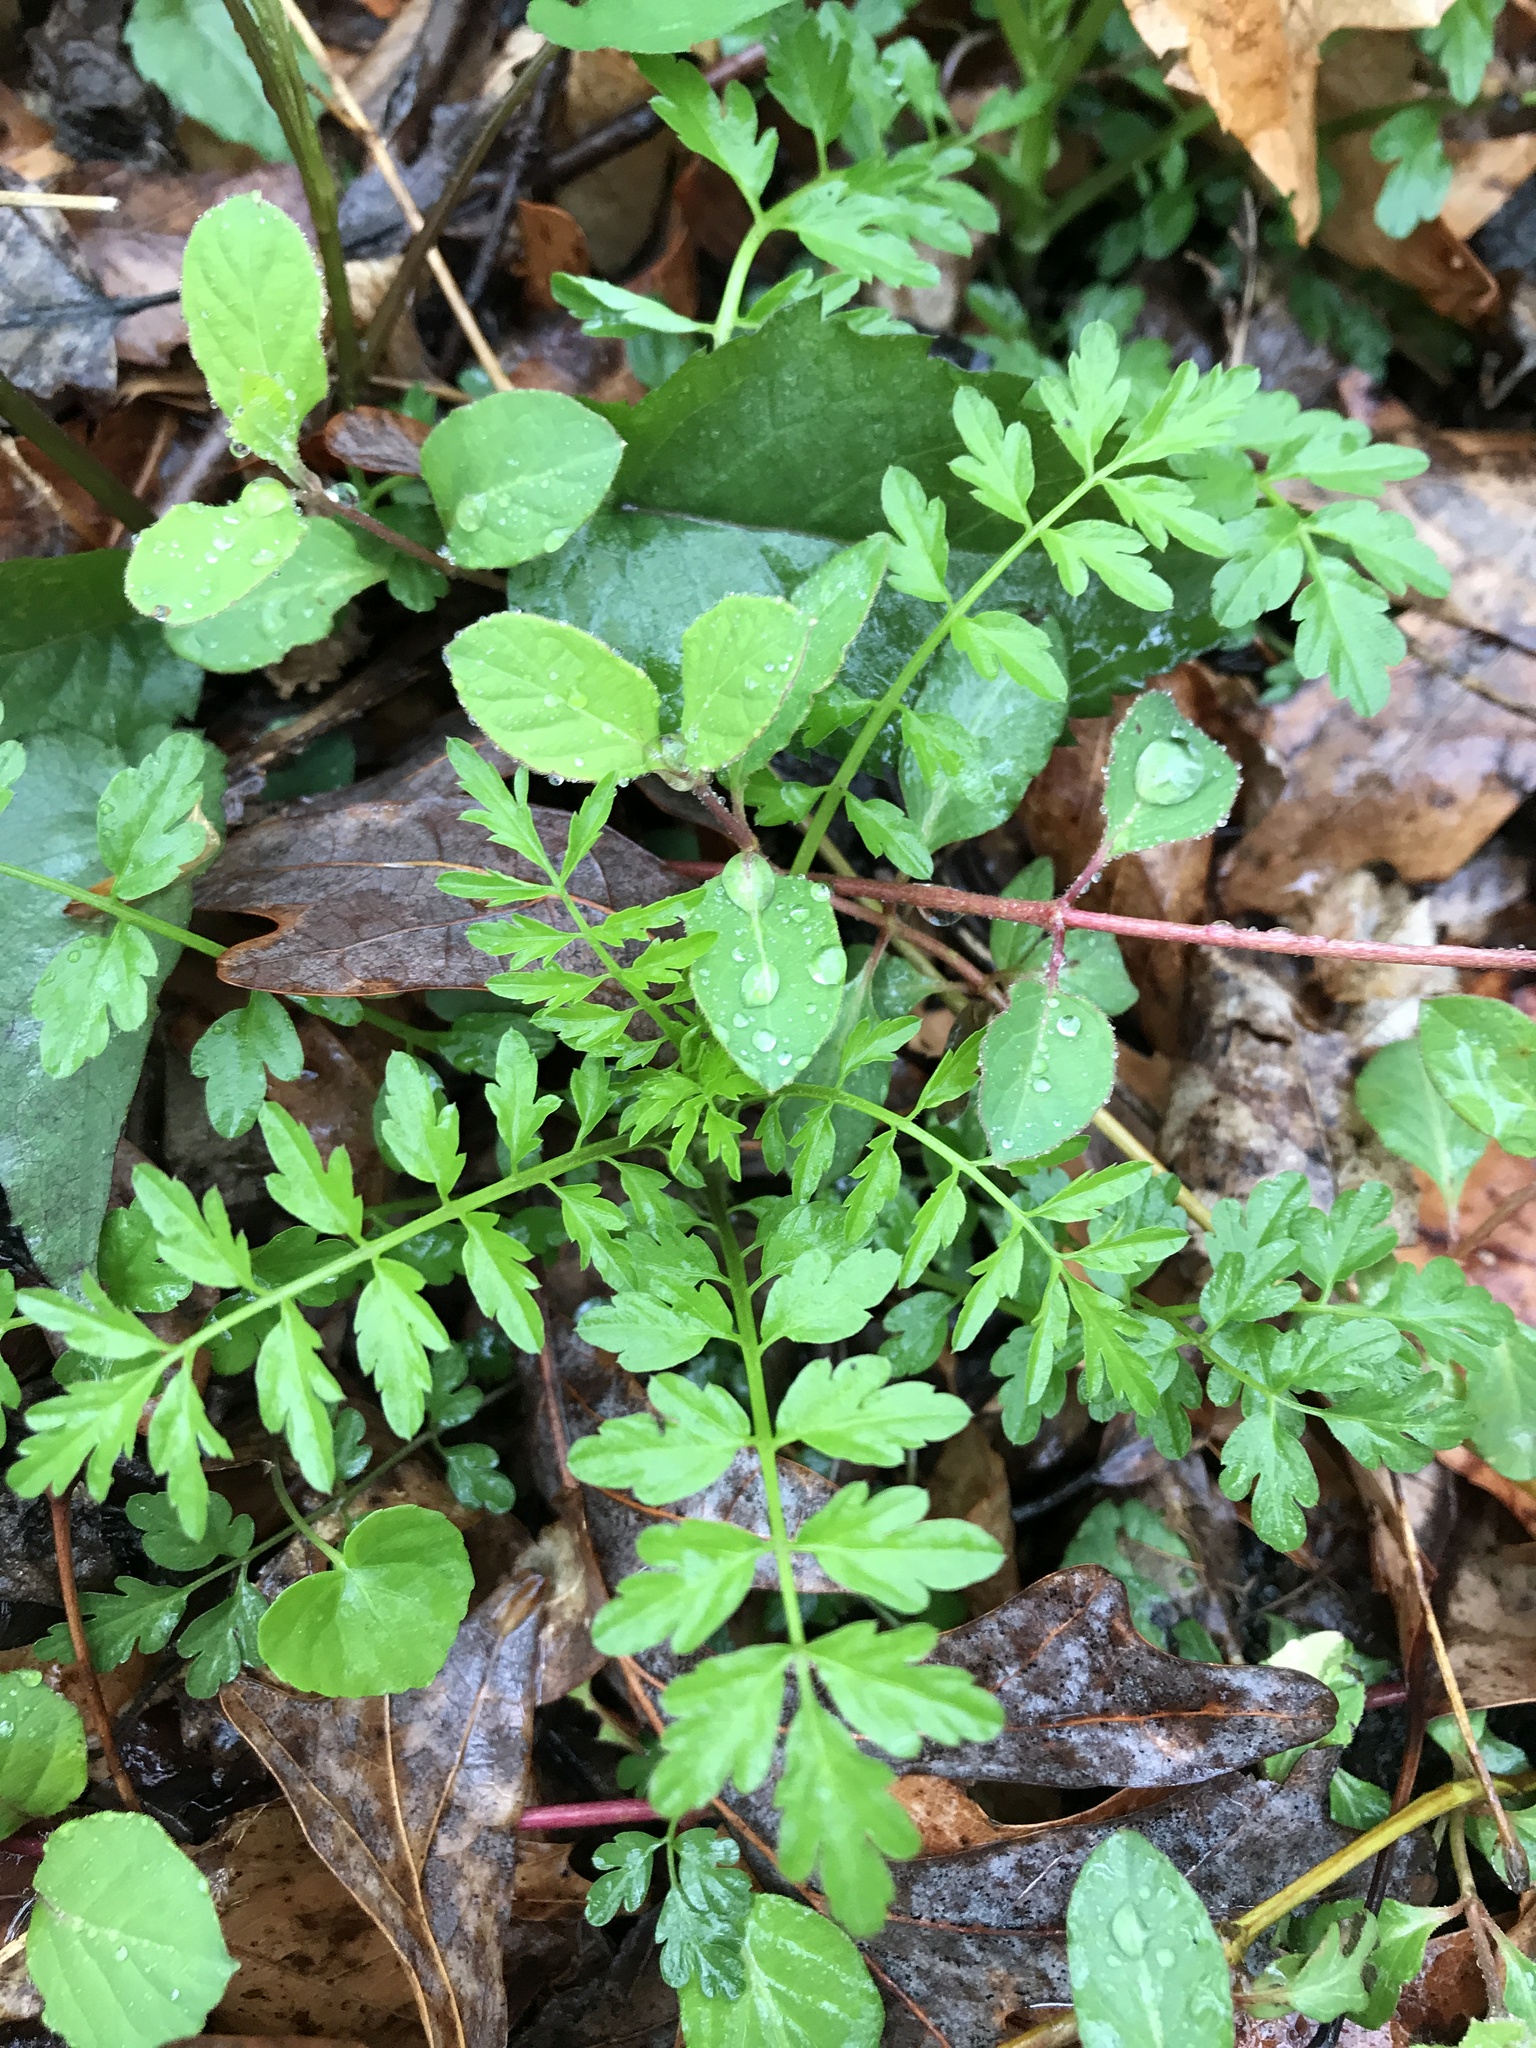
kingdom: Plantae
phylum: Tracheophyta
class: Magnoliopsida
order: Brassicales
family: Brassicaceae
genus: Cardamine
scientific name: Cardamine impatiens
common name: Narrow-leaved bitter-cress
